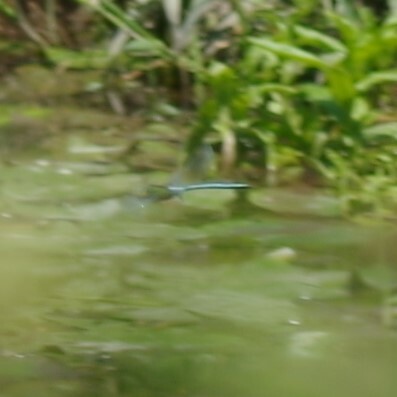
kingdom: Animalia
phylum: Arthropoda
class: Insecta
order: Odonata
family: Aeshnidae
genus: Anax
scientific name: Anax imperator
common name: Emperor dragonfly
